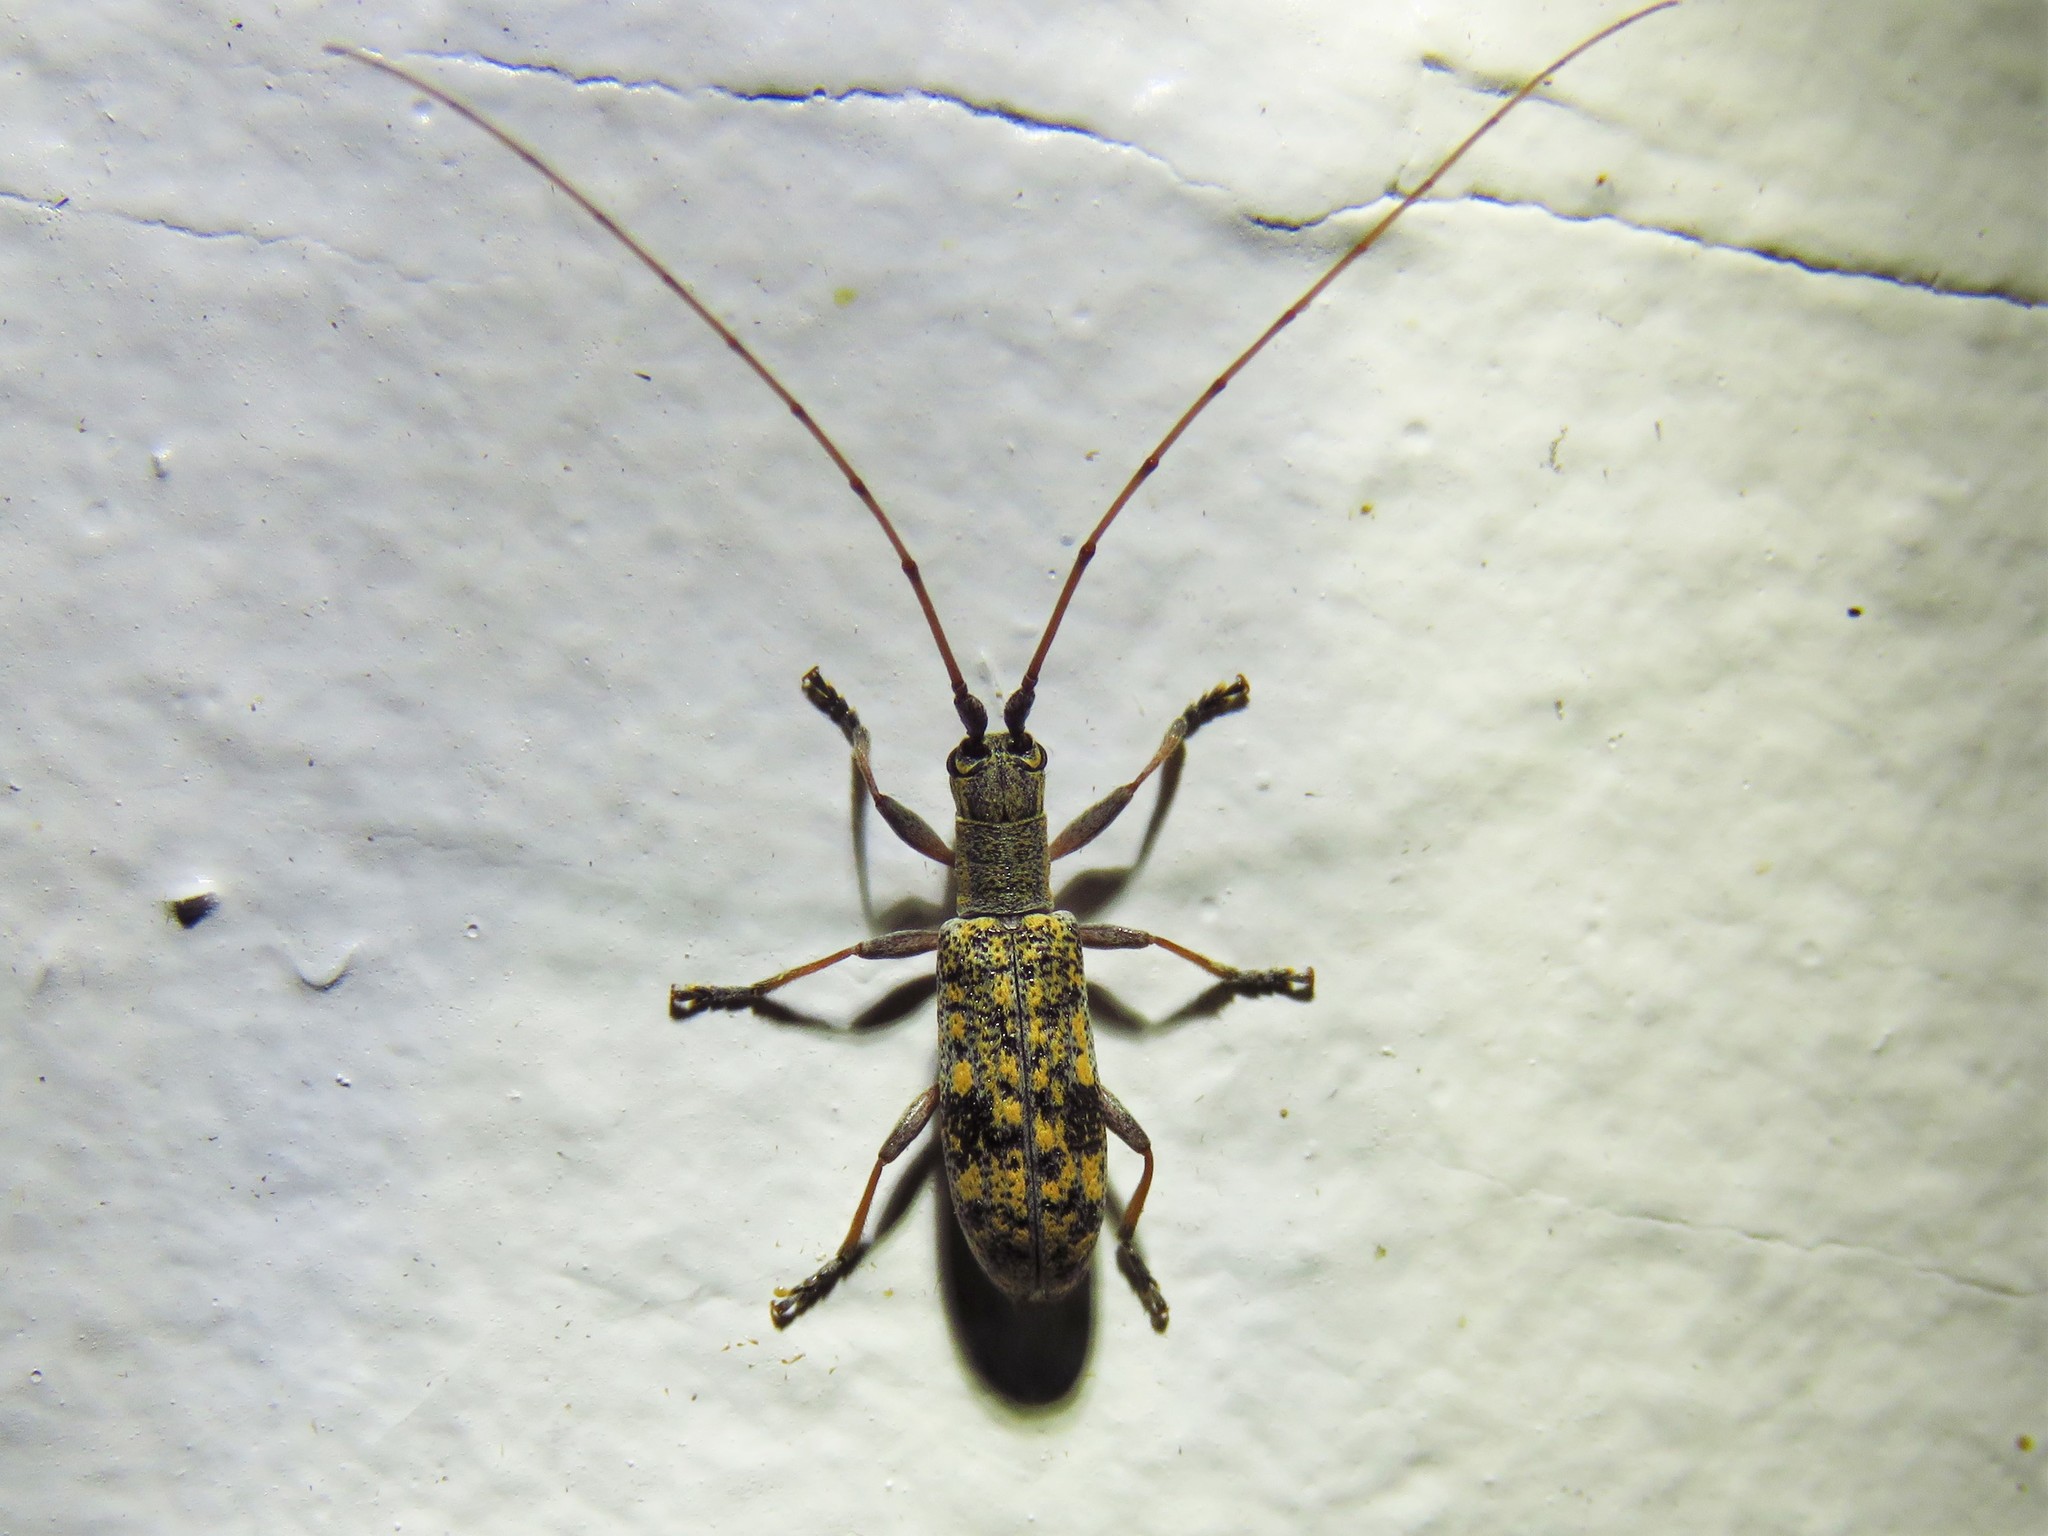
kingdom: Animalia
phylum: Arthropoda
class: Insecta
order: Coleoptera
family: Cerambycidae
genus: Dorcaschema
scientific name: Dorcaschema alternatum
